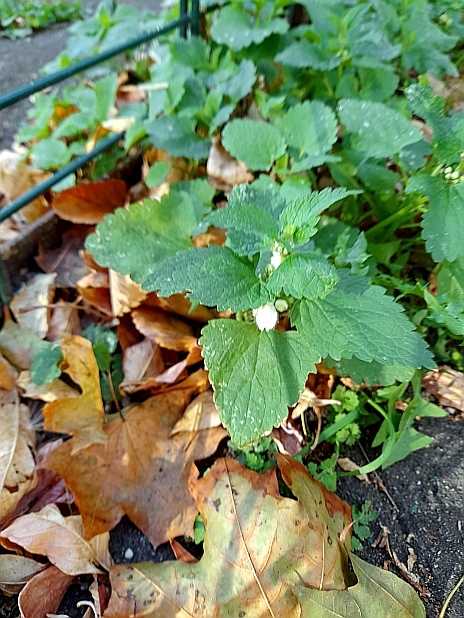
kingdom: Plantae
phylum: Tracheophyta
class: Magnoliopsida
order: Lamiales
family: Lamiaceae
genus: Lamium
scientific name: Lamium album
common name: White dead-nettle
